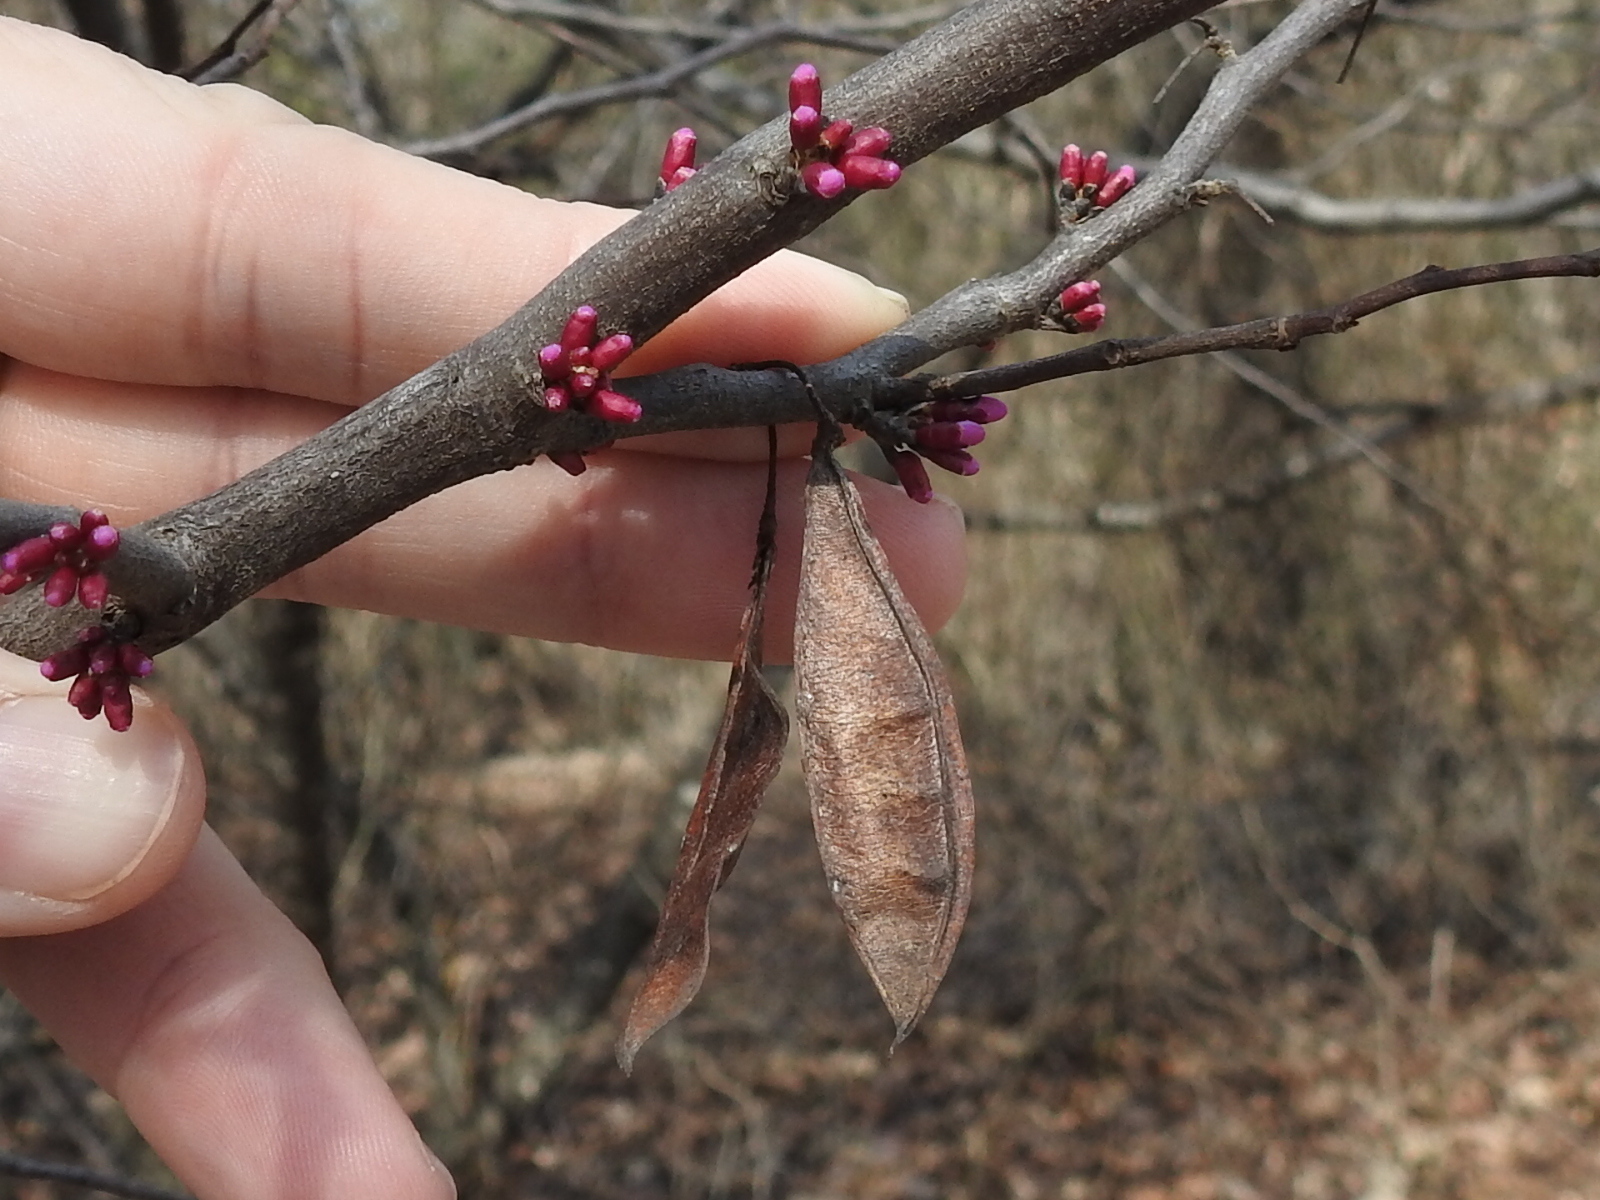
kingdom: Plantae
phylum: Tracheophyta
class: Magnoliopsida
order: Fabales
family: Fabaceae
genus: Cercis
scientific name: Cercis canadensis
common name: Eastern redbud
